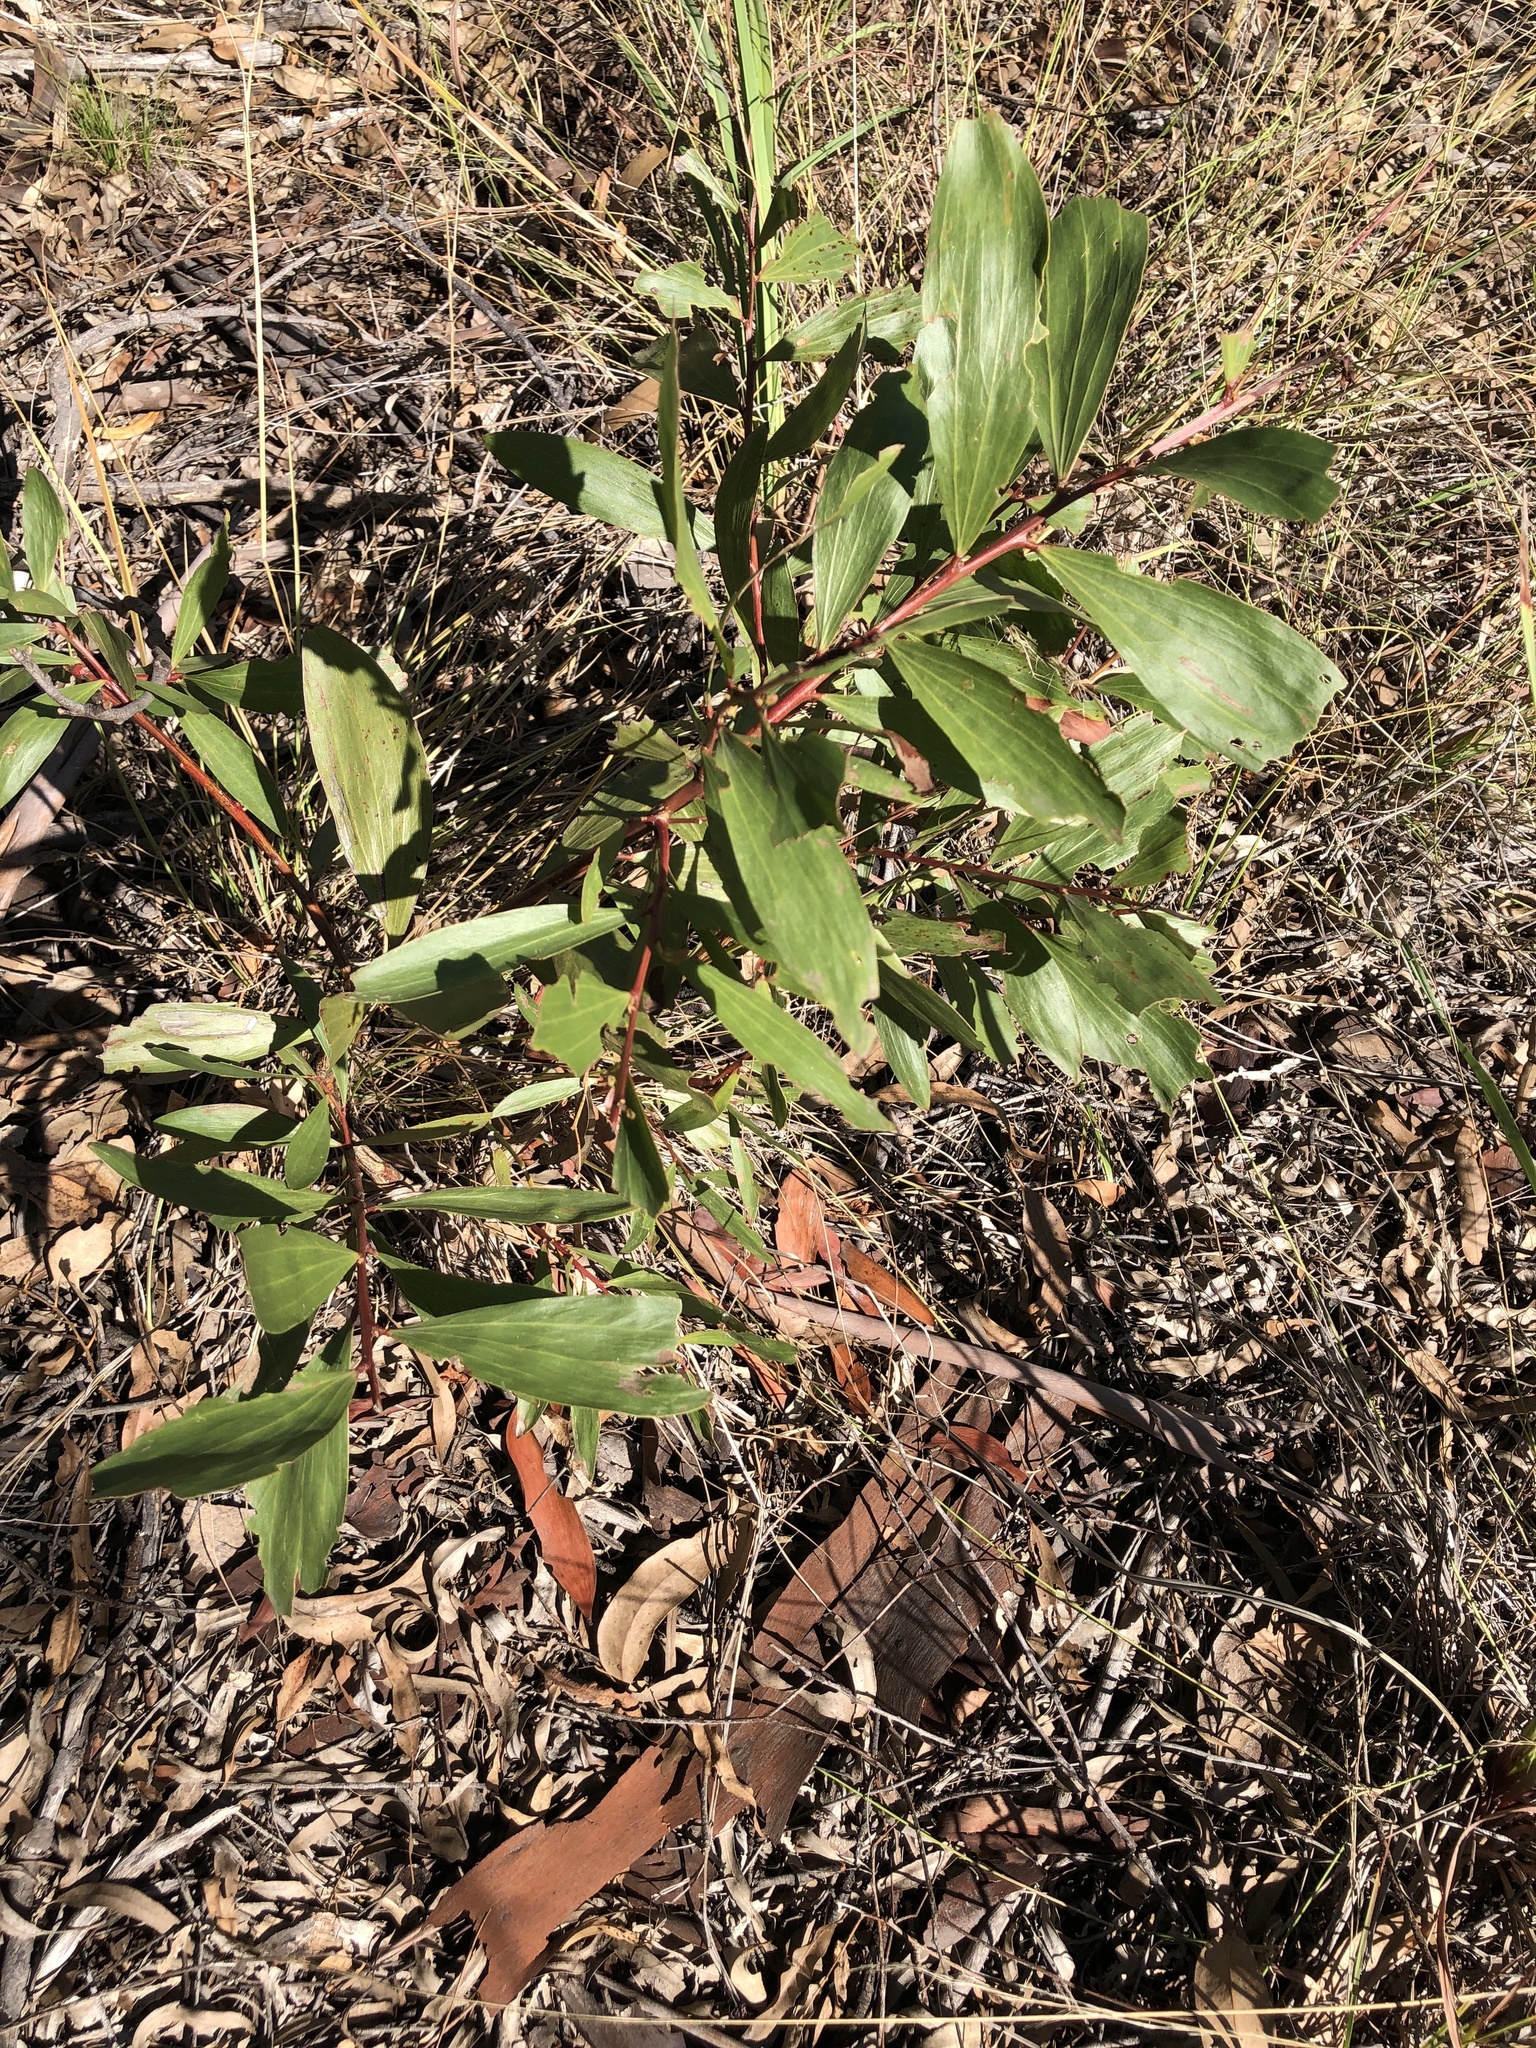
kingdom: Plantae
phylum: Tracheophyta
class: Magnoliopsida
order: Fabales
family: Fabaceae
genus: Acacia
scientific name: Acacia leiocalyx
